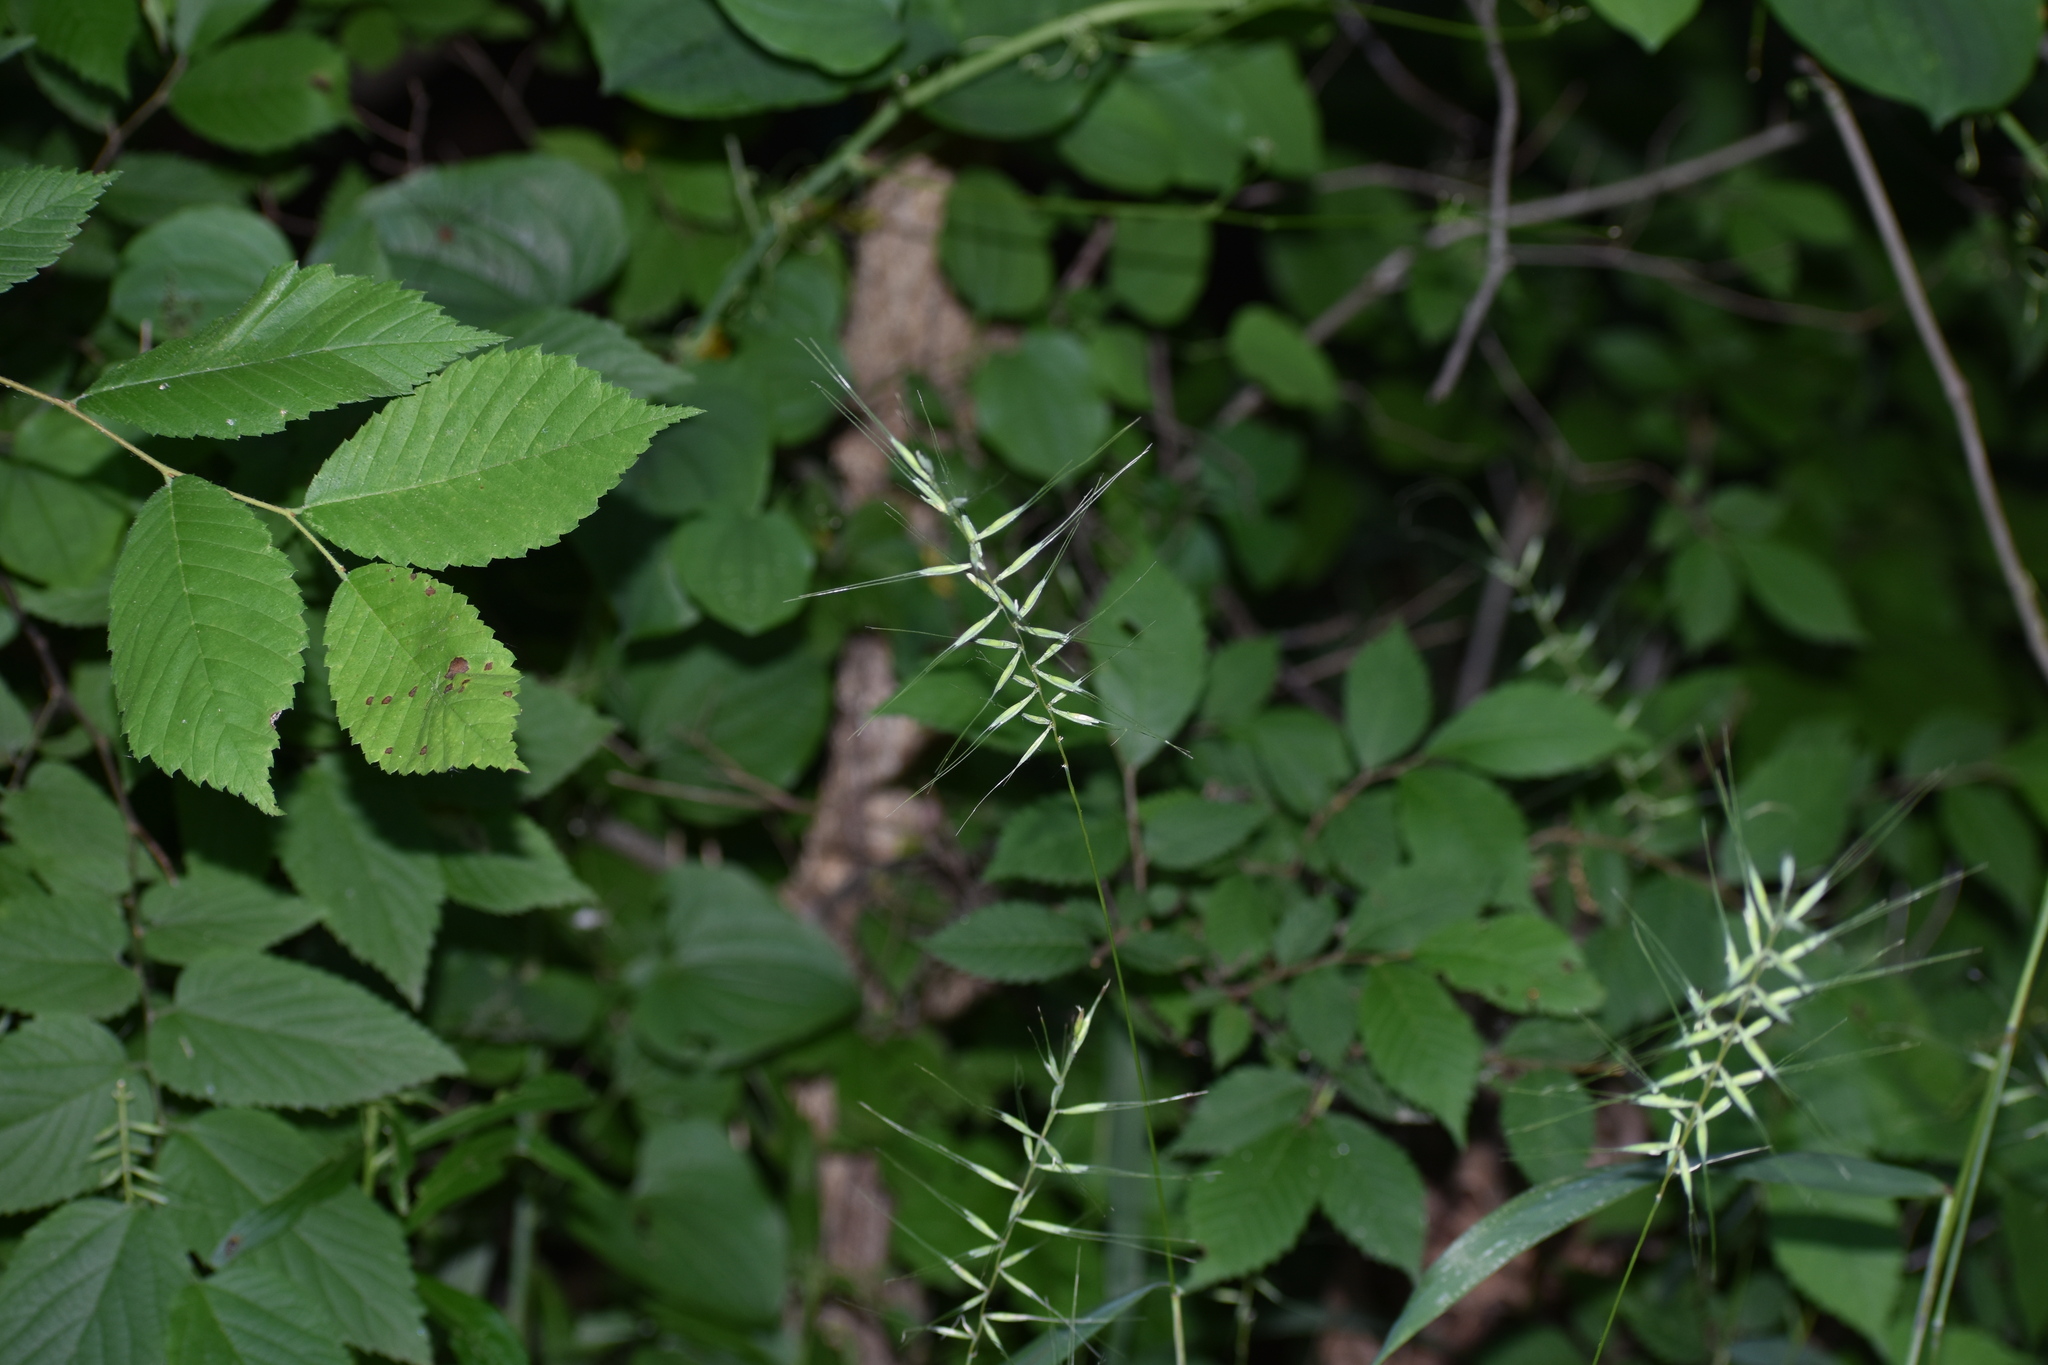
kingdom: Plantae
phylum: Tracheophyta
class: Liliopsida
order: Poales
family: Poaceae
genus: Elymus
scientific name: Elymus hystrix
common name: Bottlebrush grass
